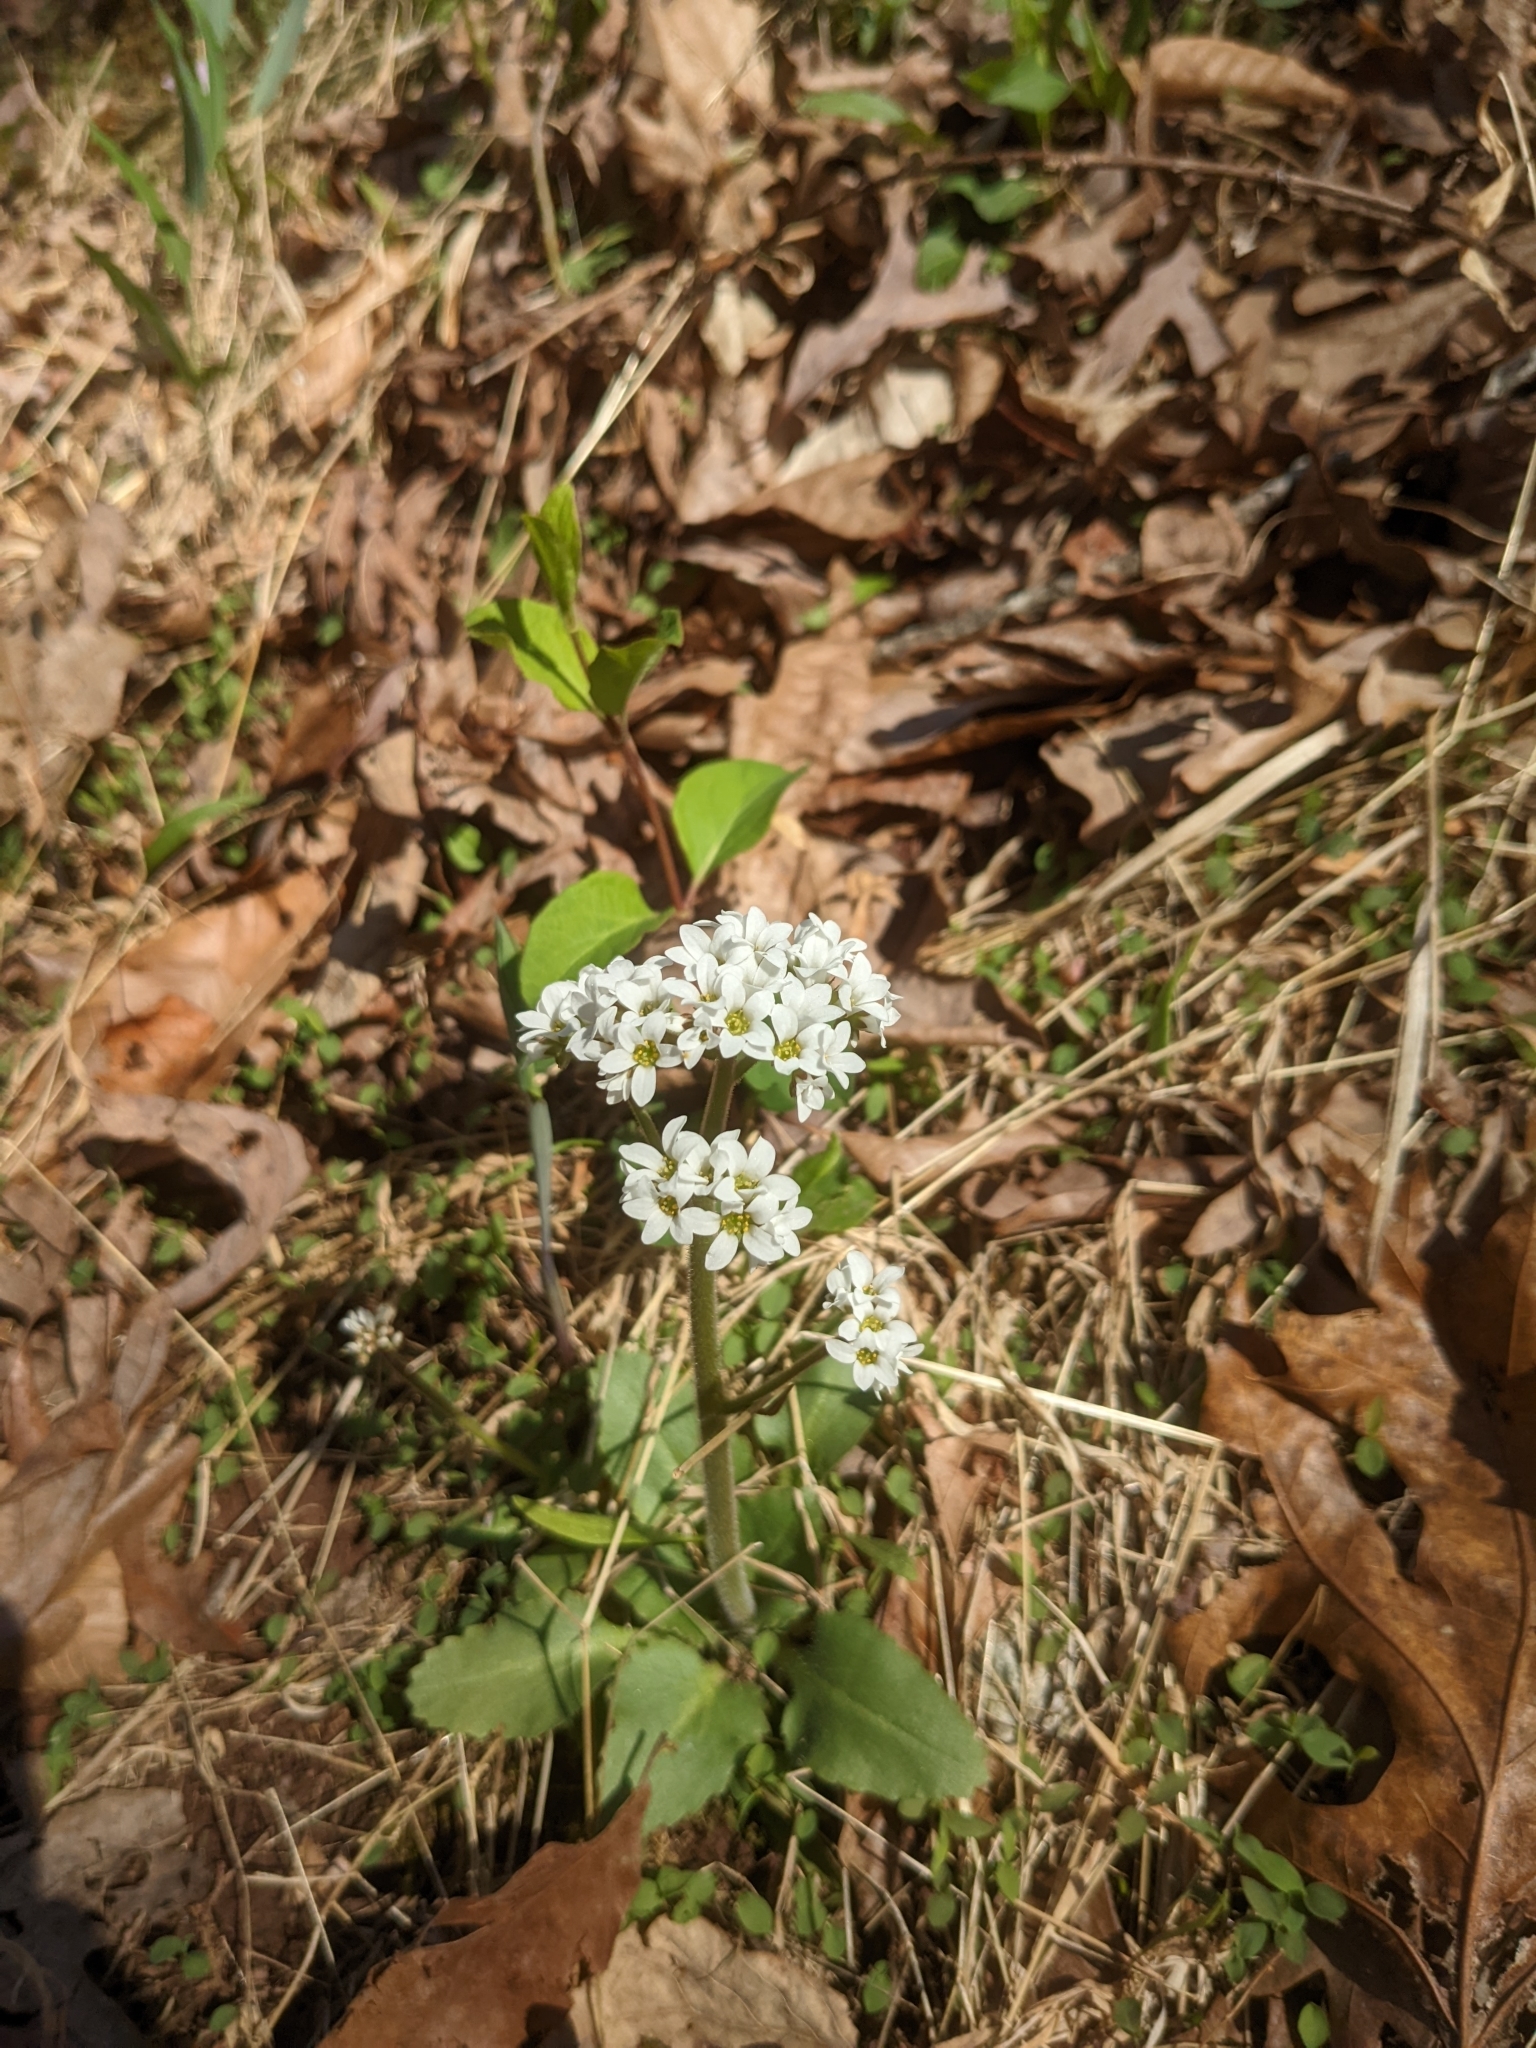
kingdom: Plantae
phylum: Tracheophyta
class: Magnoliopsida
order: Saxifragales
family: Saxifragaceae
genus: Micranthes
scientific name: Micranthes virginiensis
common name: Early saxifrage
